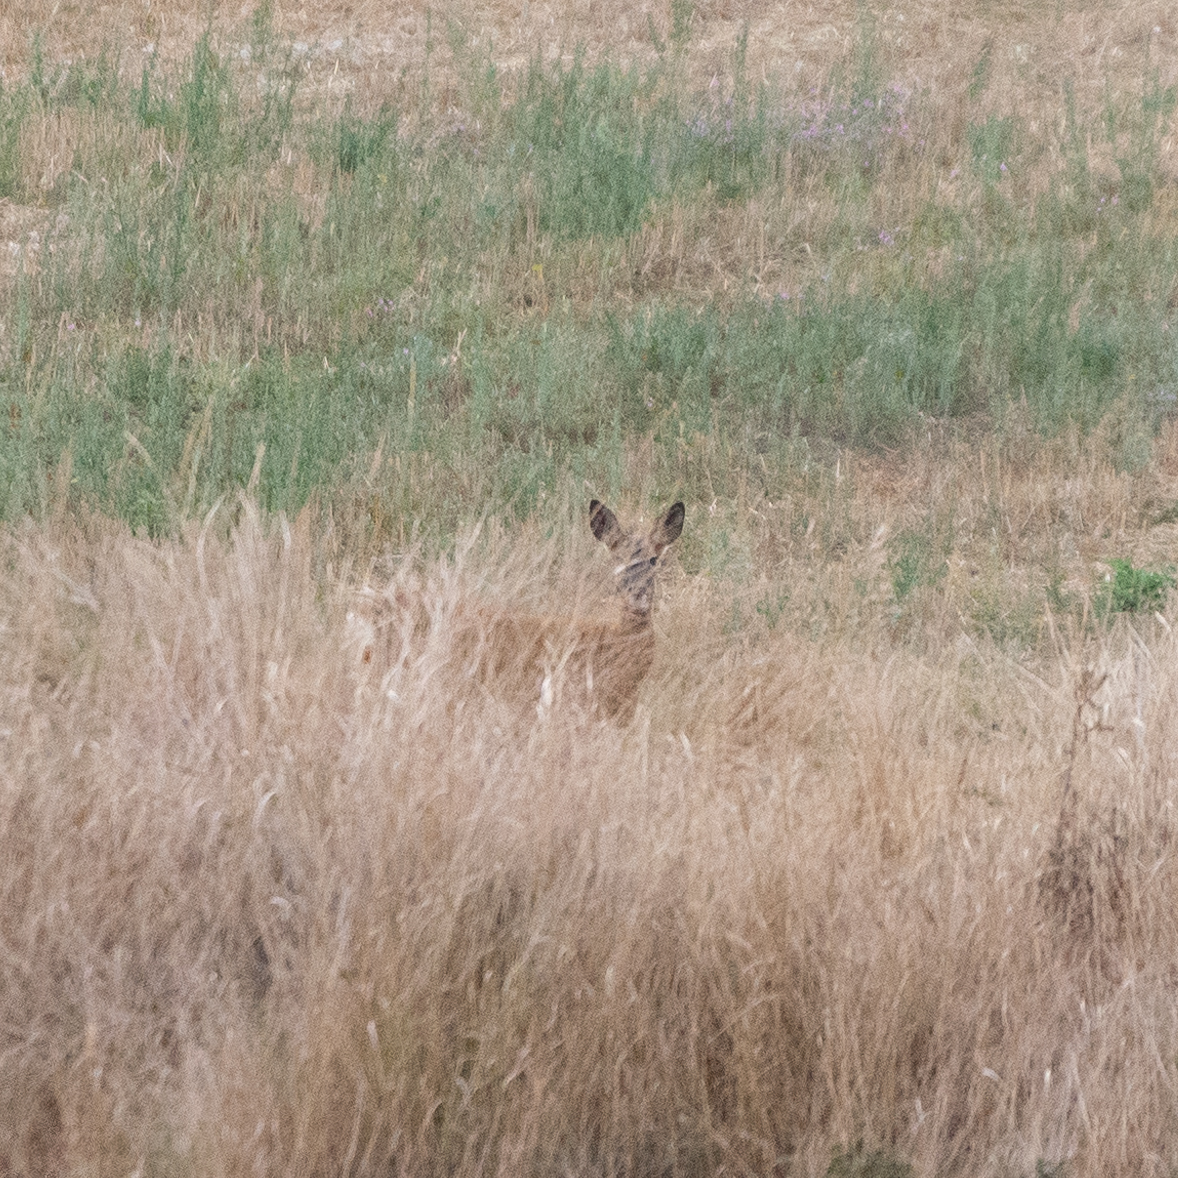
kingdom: Animalia
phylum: Chordata
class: Mammalia
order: Artiodactyla
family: Cervidae
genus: Capreolus
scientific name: Capreolus capreolus
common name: Western roe deer
